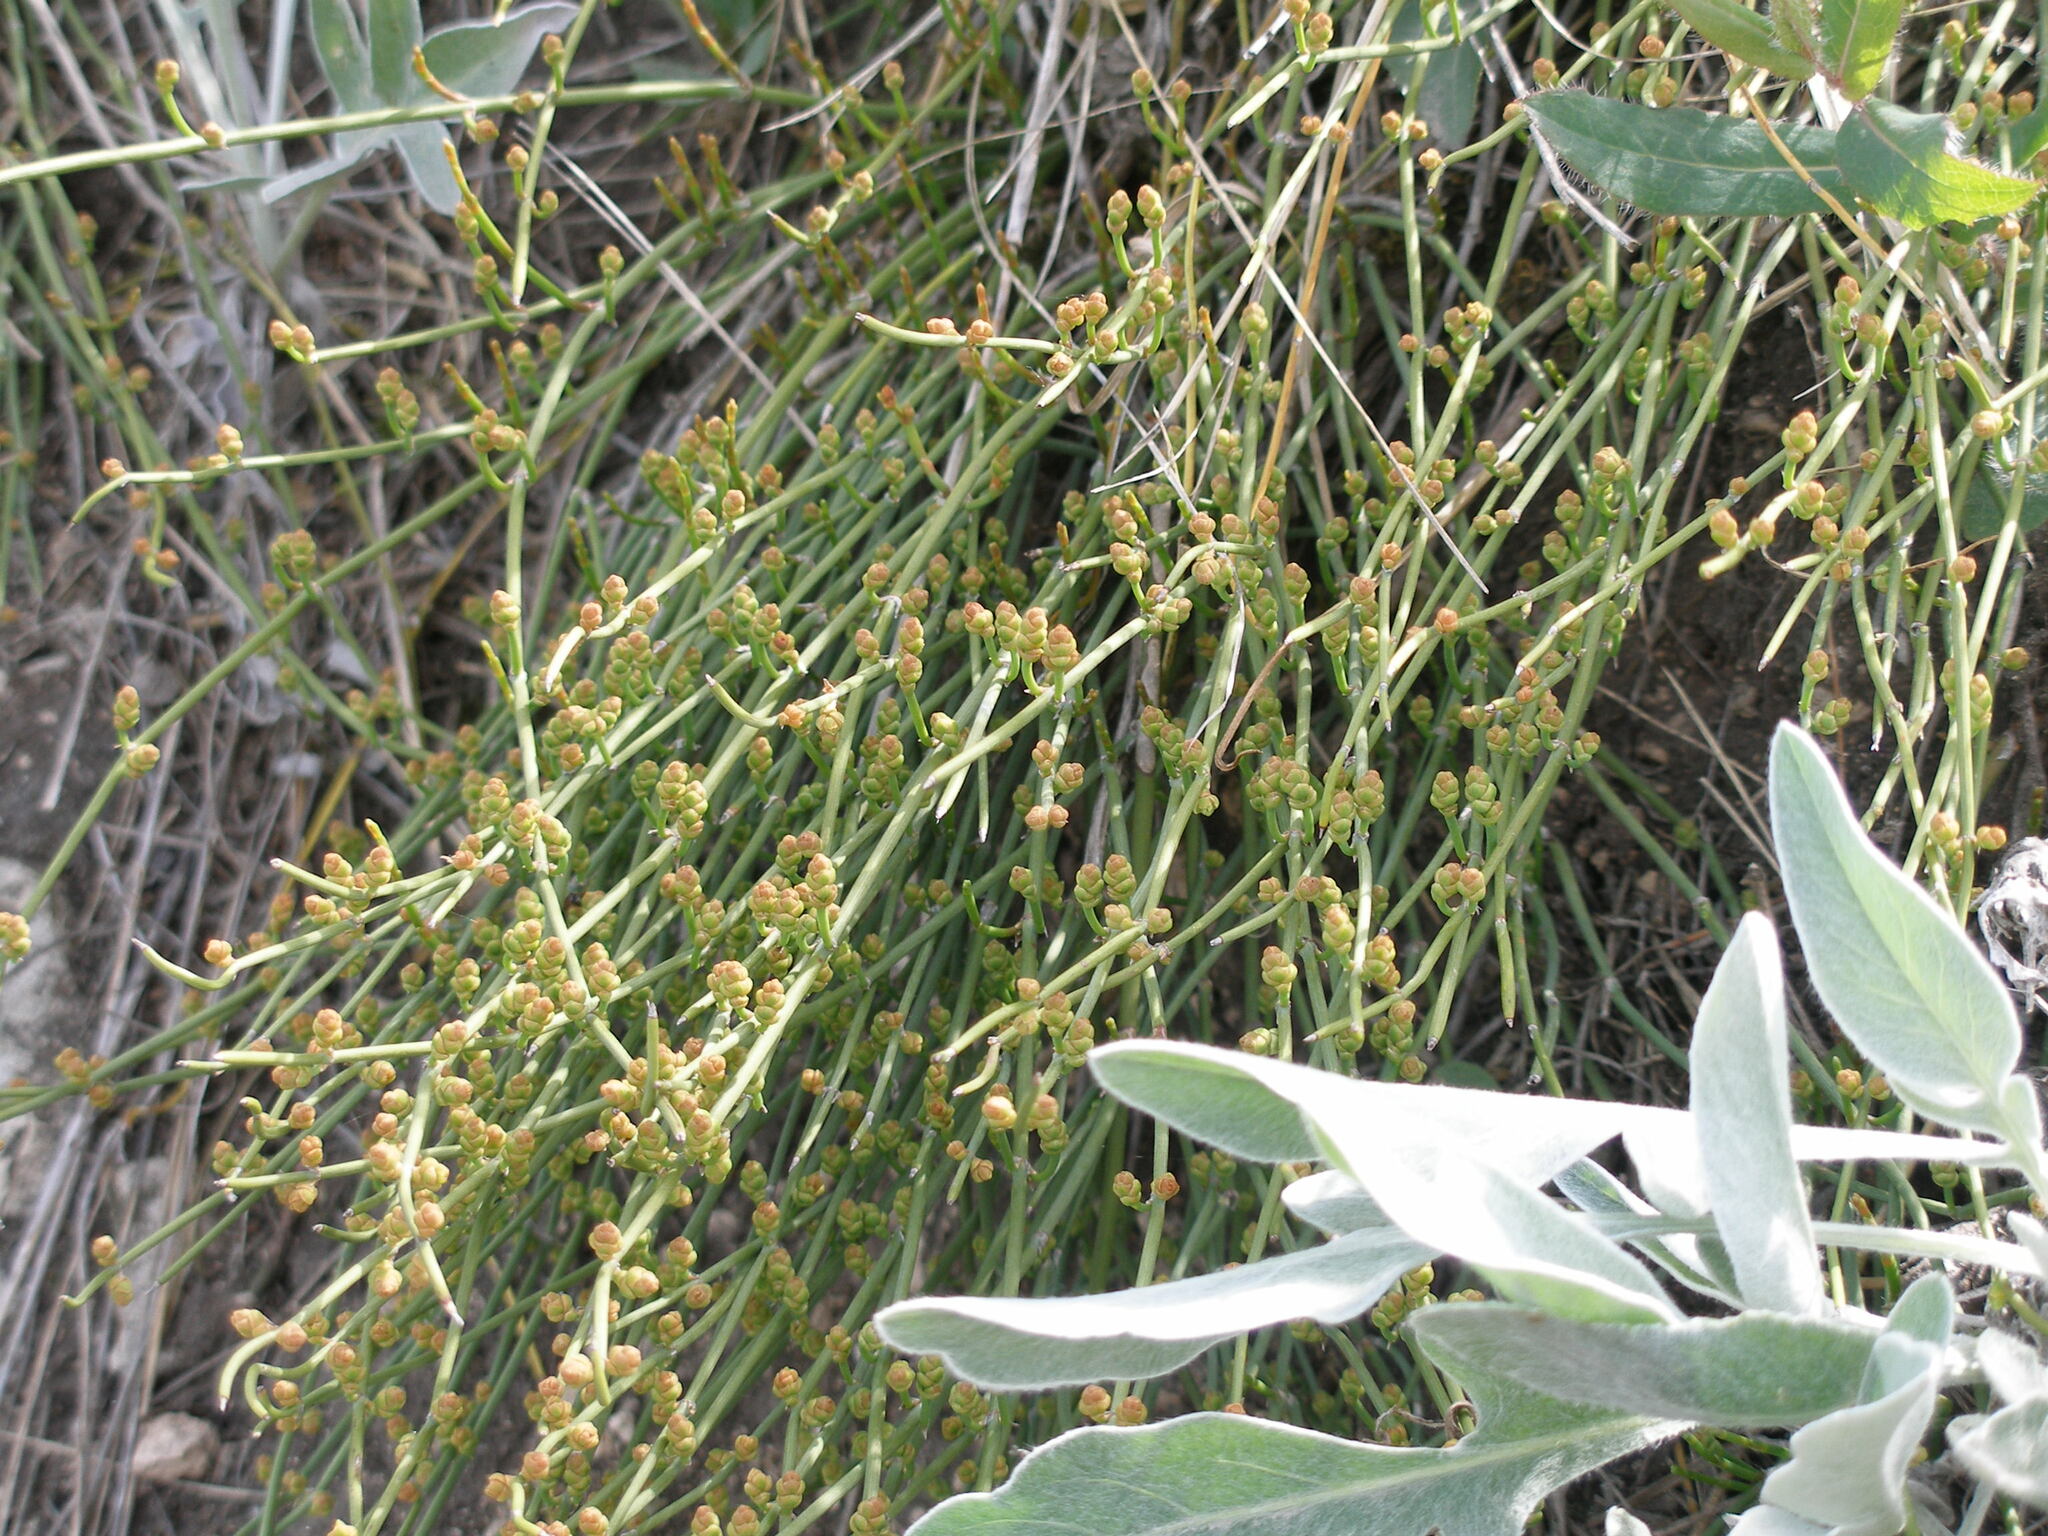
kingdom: Plantae
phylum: Tracheophyta
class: Gnetopsida
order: Ephedrales
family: Ephedraceae
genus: Ephedra
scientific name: Ephedra distachya
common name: Sea grape
